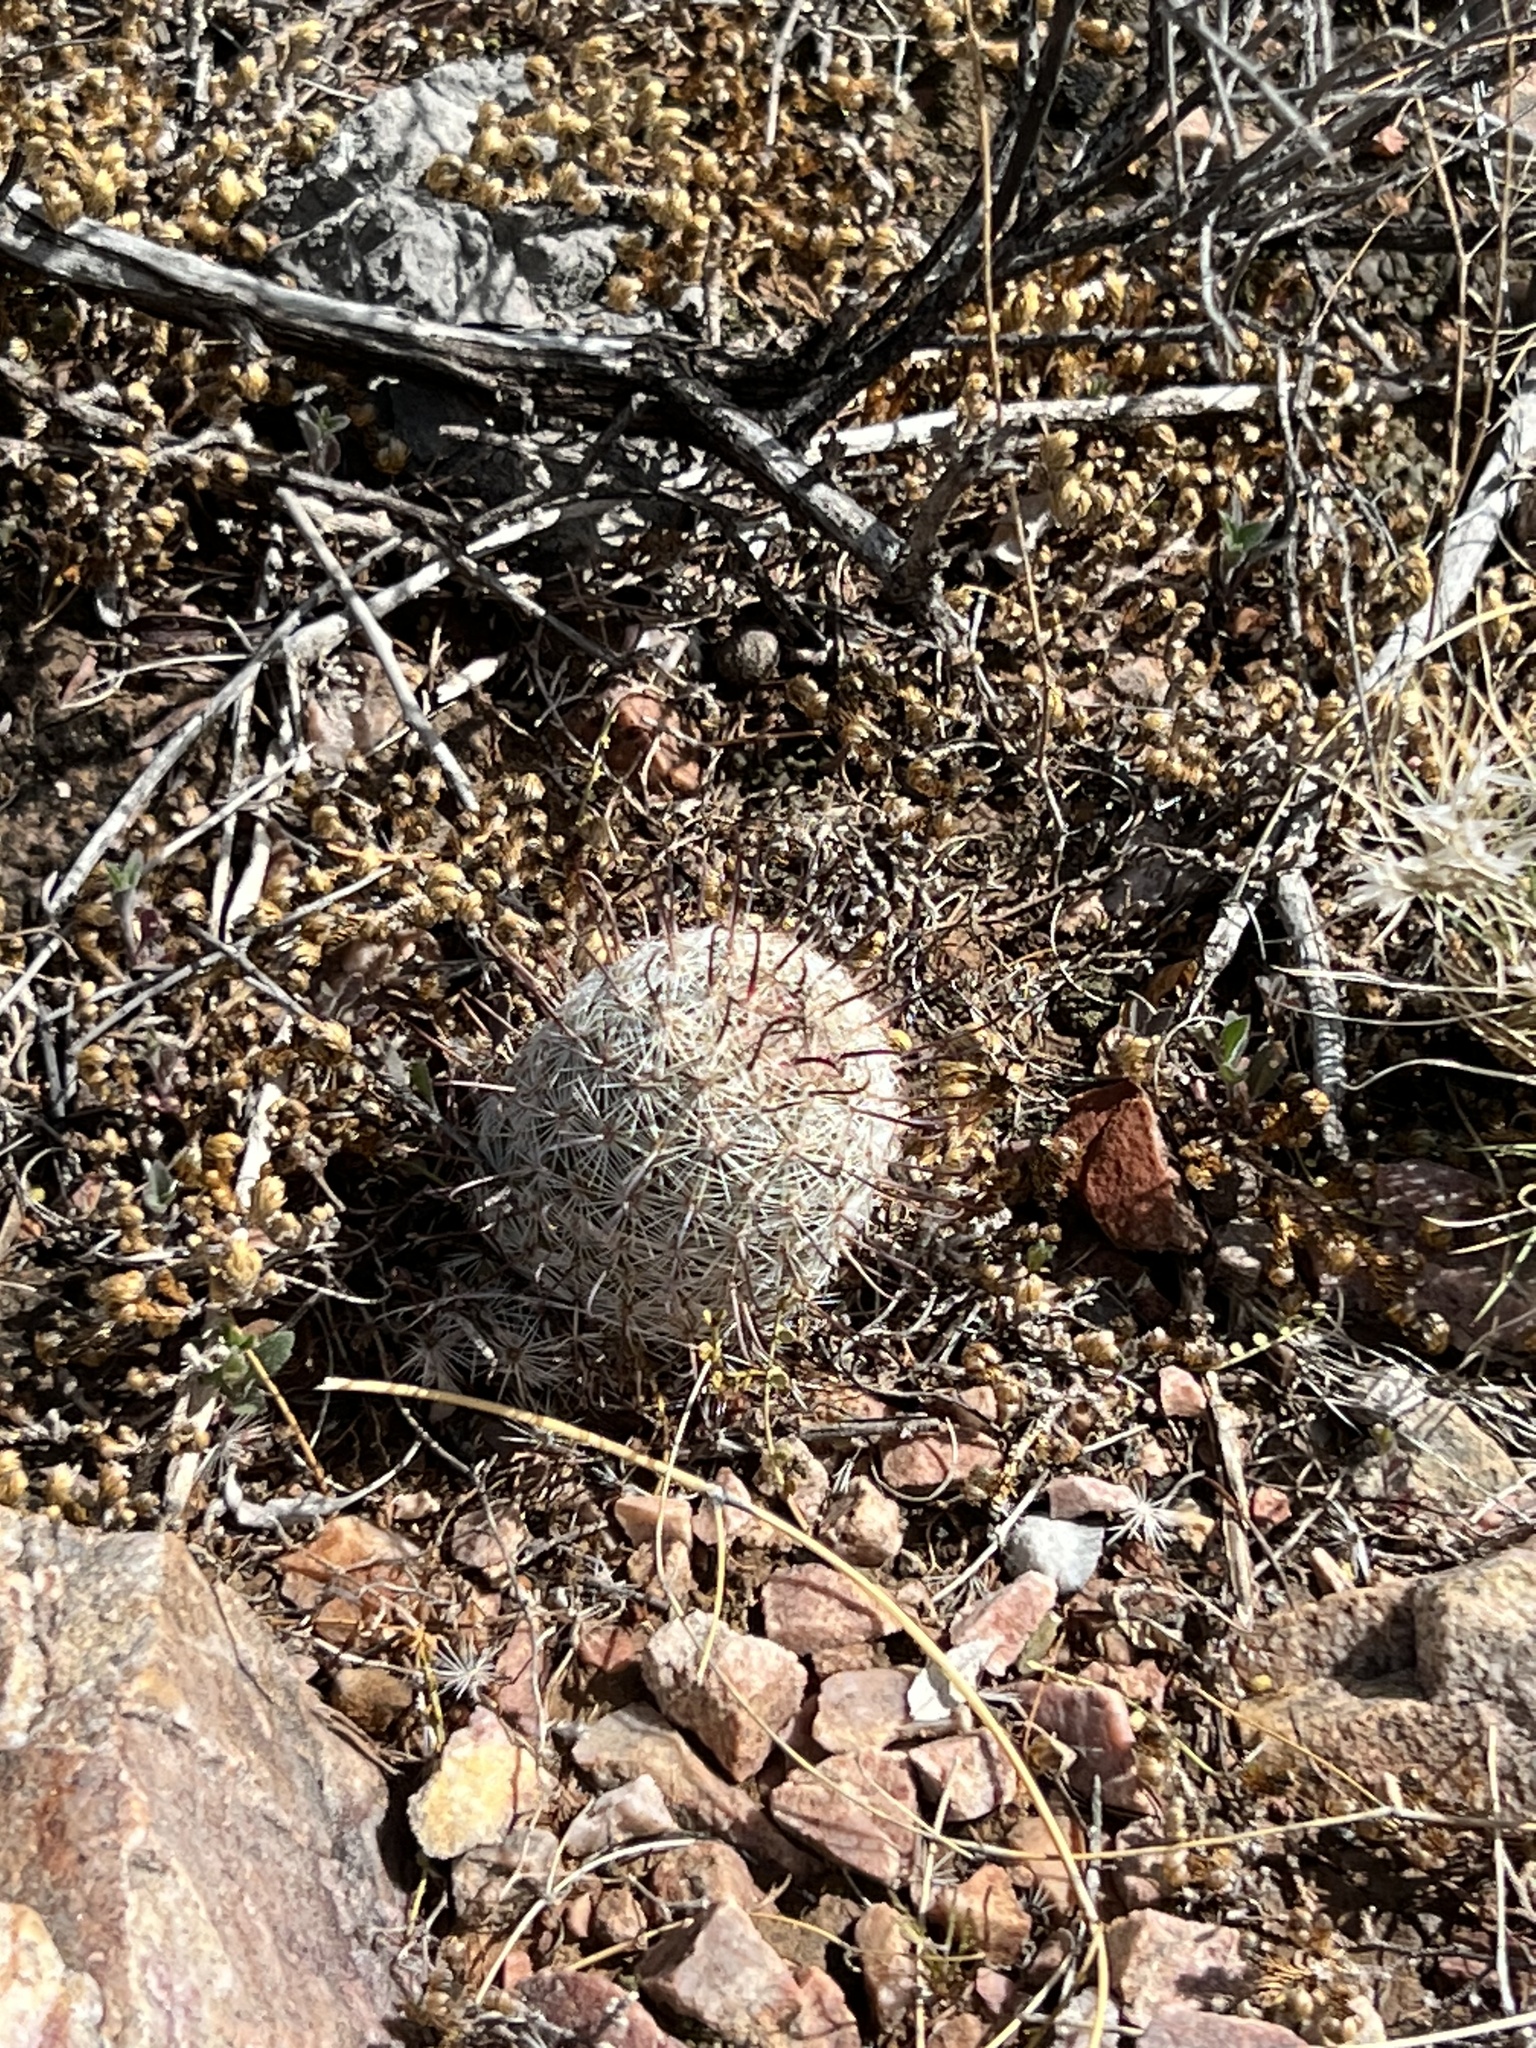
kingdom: Plantae
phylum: Tracheophyta
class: Magnoliopsida
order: Caryophyllales
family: Cactaceae
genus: Cochemiea
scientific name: Cochemiea grahamii
